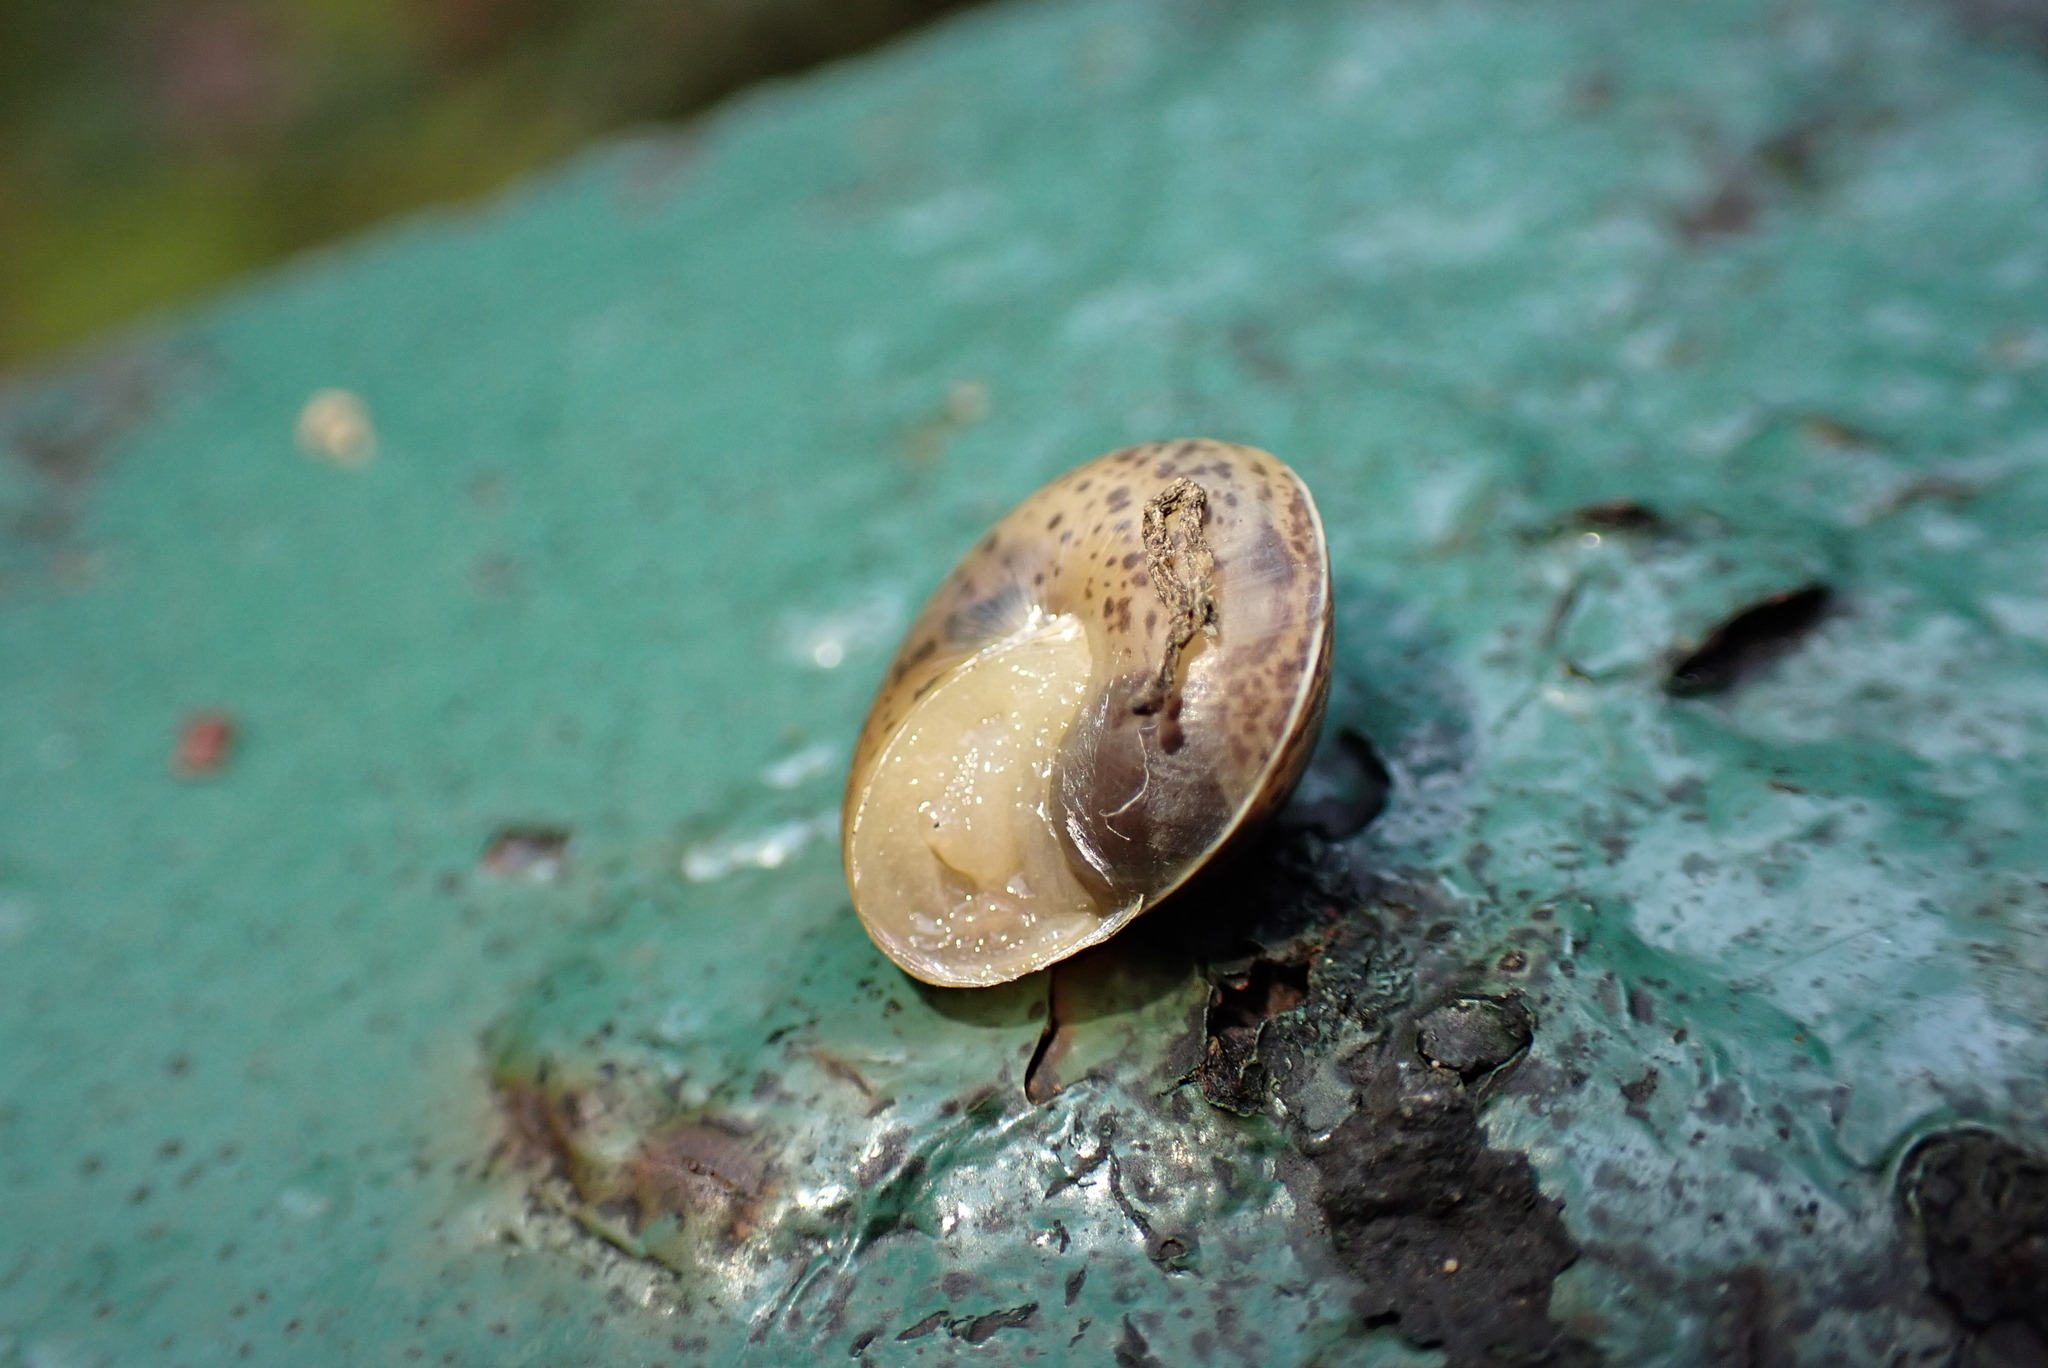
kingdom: Animalia
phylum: Mollusca
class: Gastropoda
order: Stylommatophora
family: Hygromiidae
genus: Hygromia
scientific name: Hygromia cinctella
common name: Girdled snail
